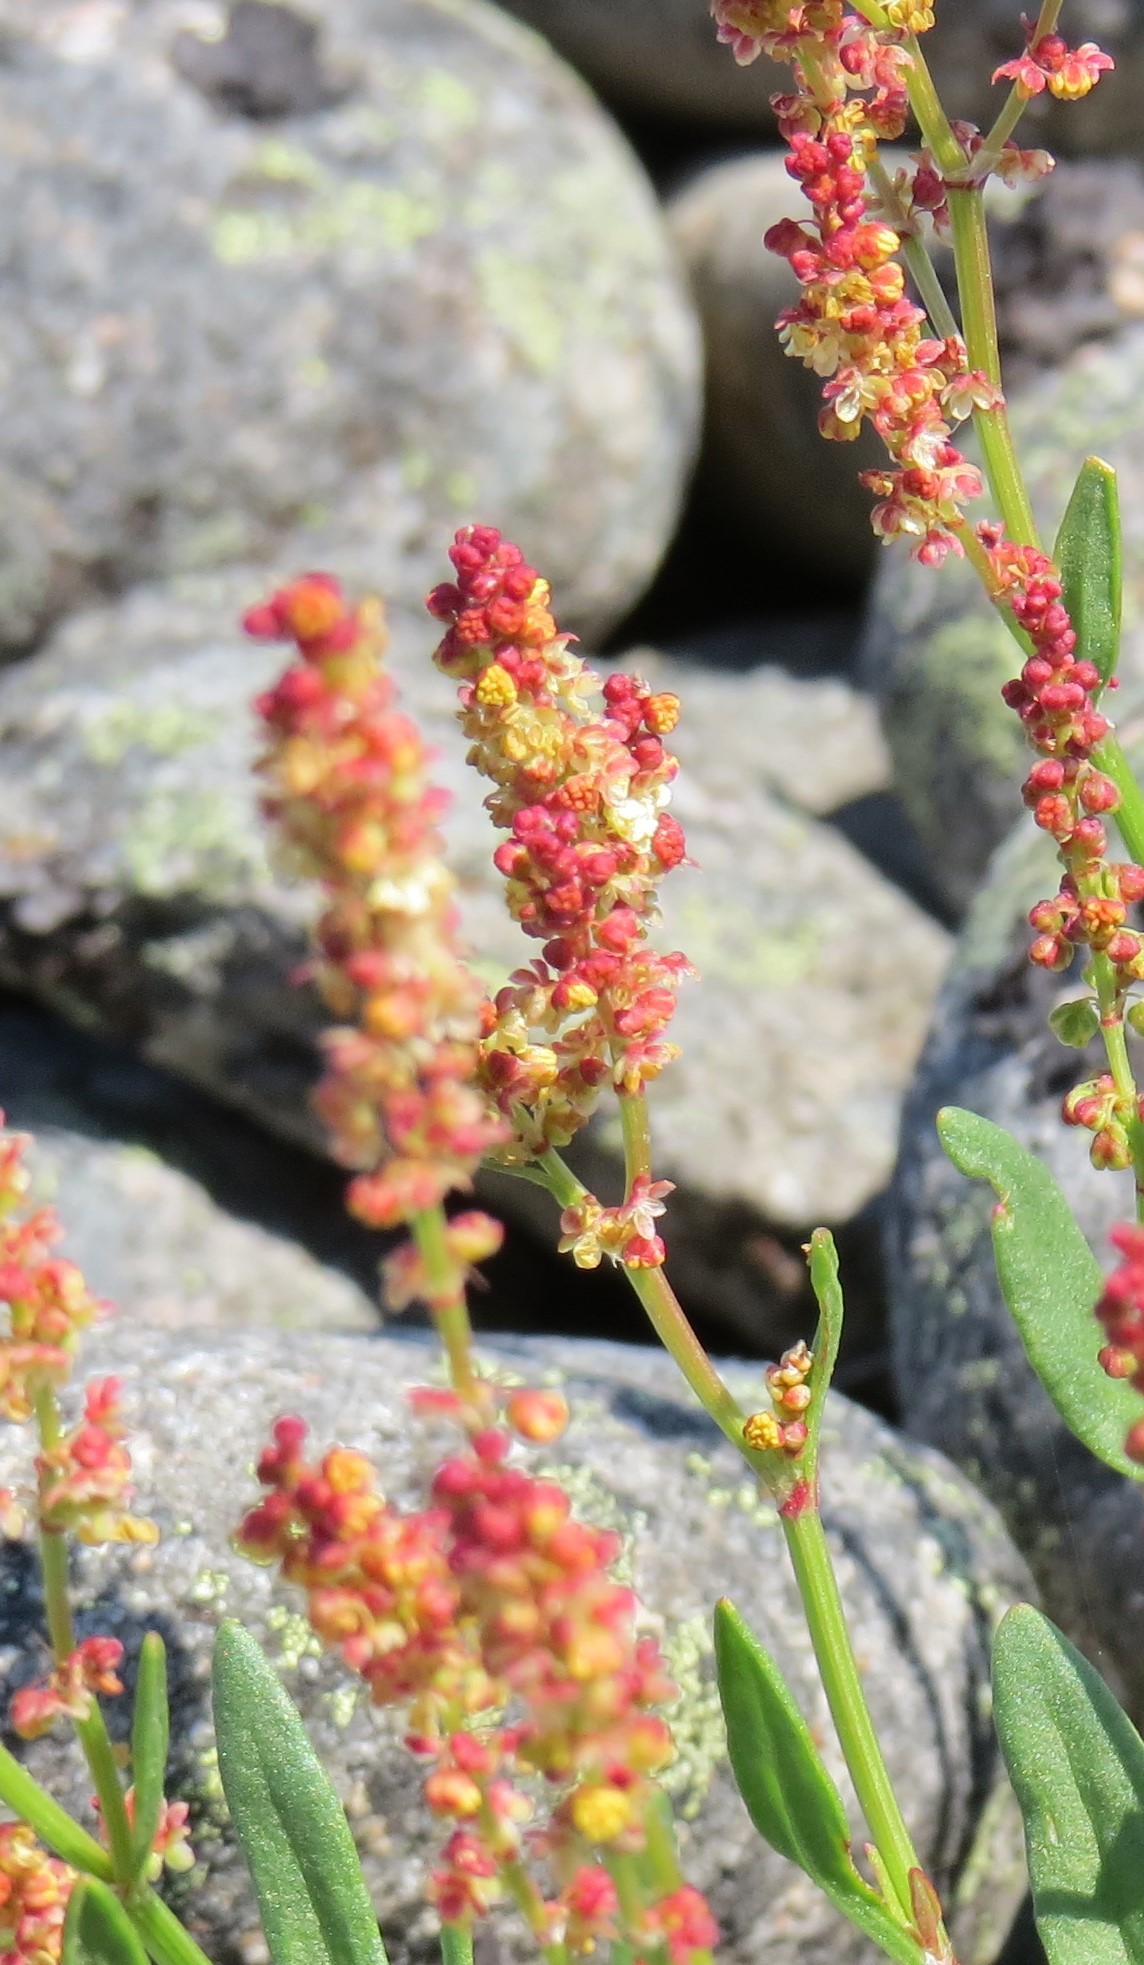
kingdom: Plantae
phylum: Tracheophyta
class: Magnoliopsida
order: Caryophyllales
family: Polygonaceae
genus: Rumex
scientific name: Rumex acetosa
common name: Garden sorrel
